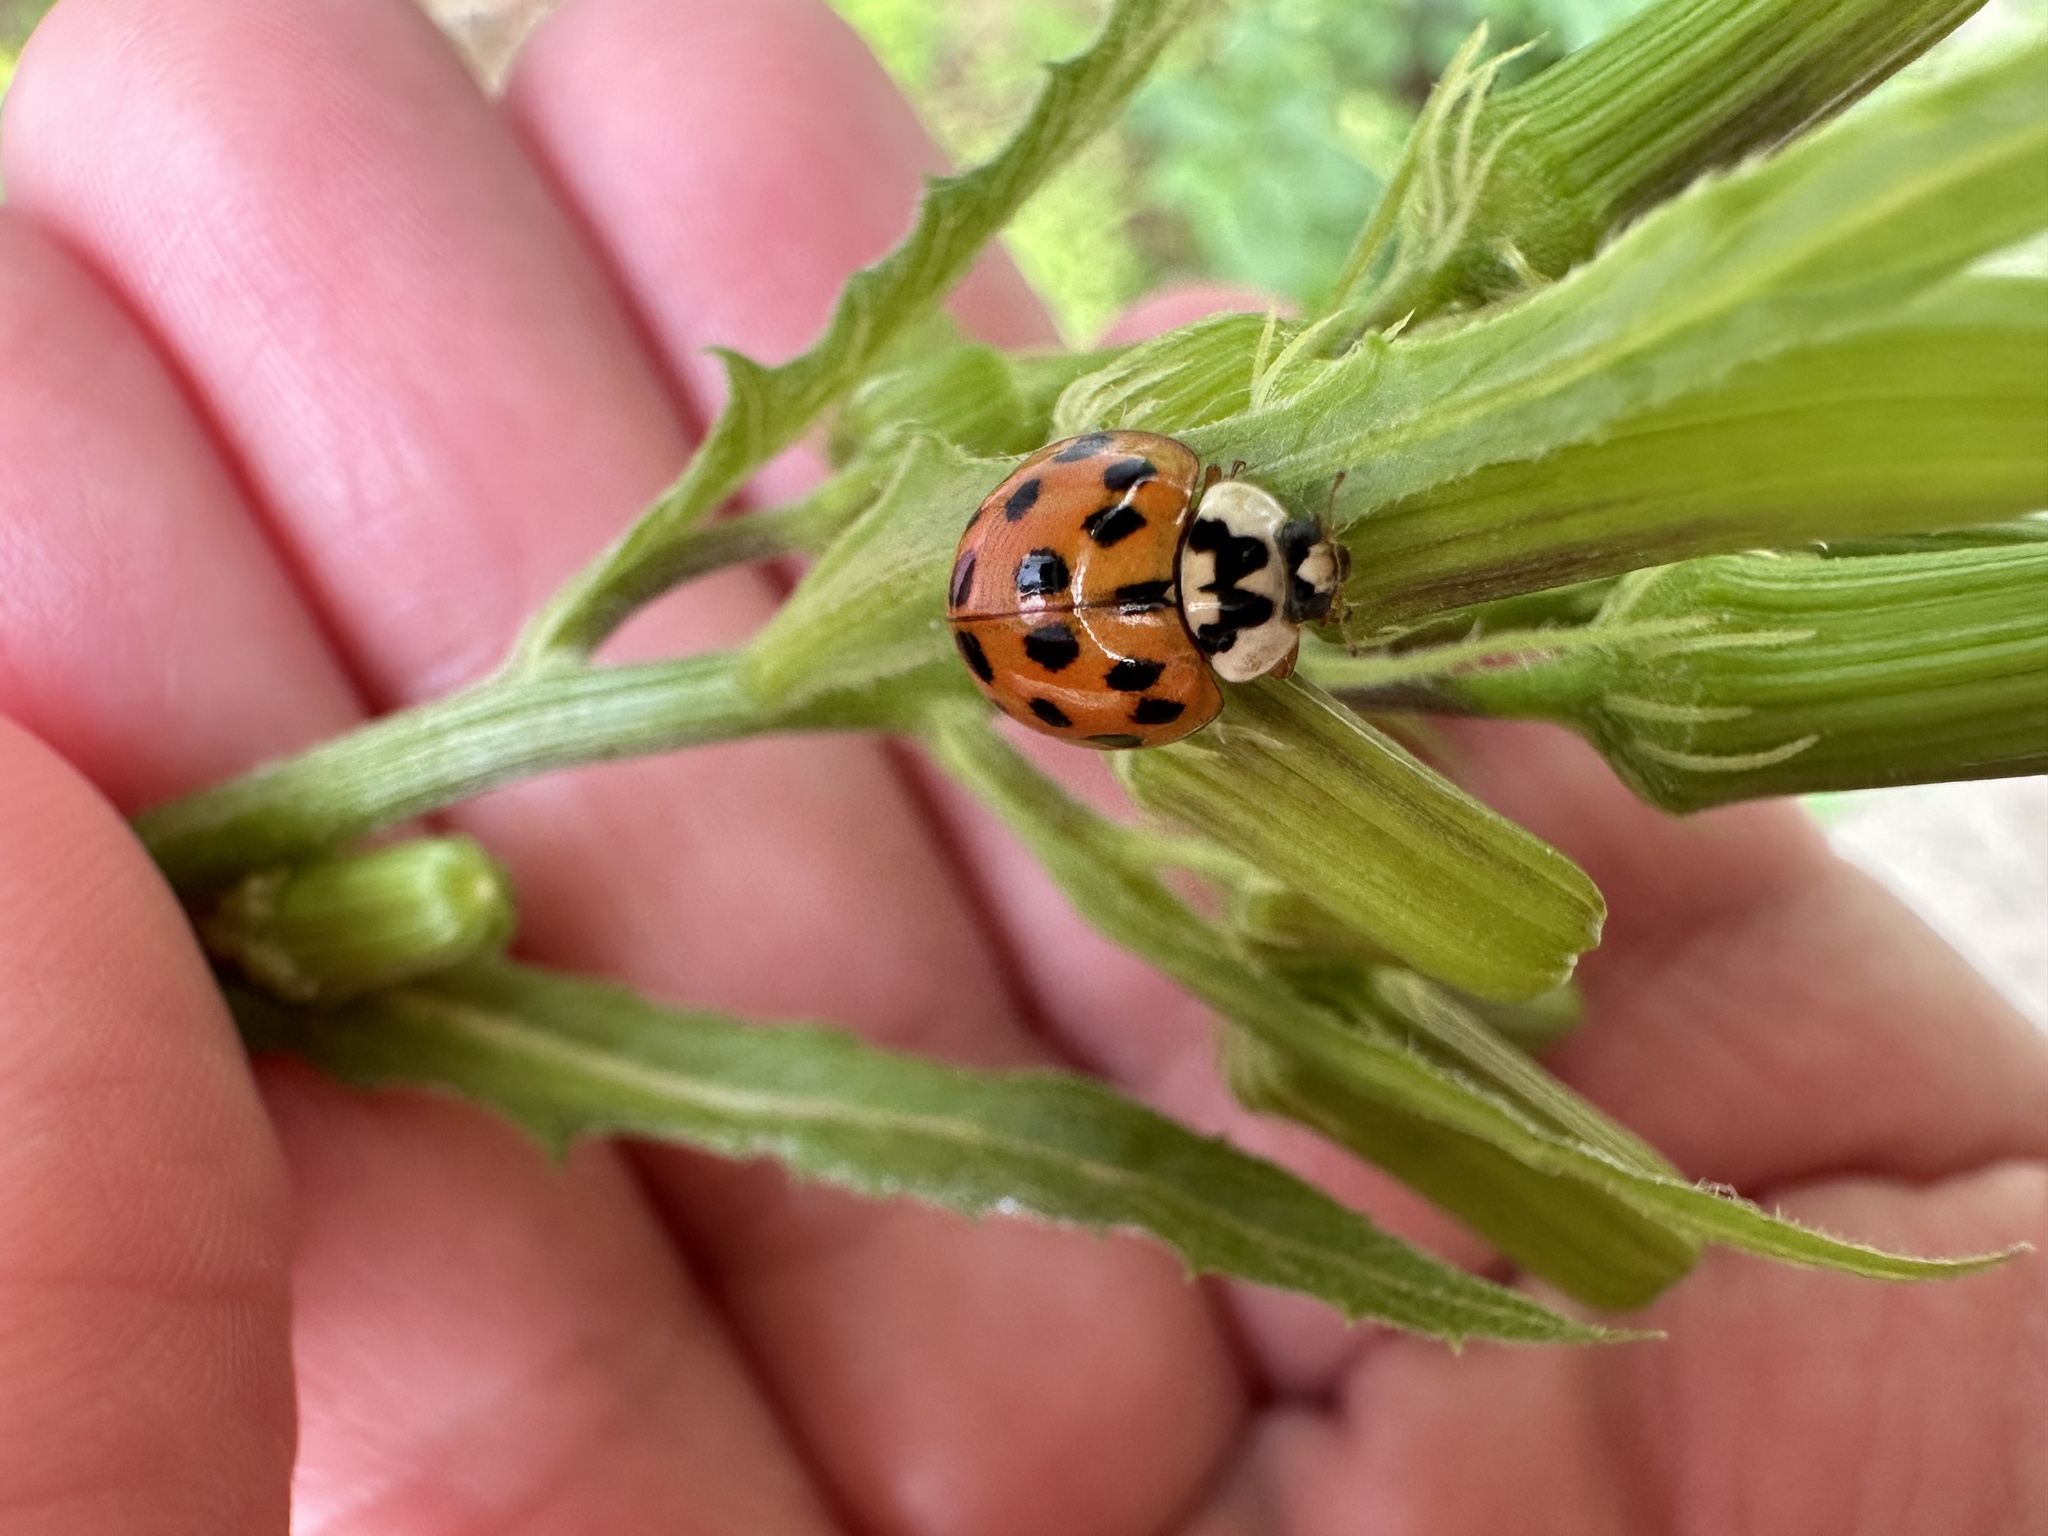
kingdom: Animalia
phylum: Arthropoda
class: Insecta
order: Coleoptera
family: Coccinellidae
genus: Harmonia
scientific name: Harmonia axyridis
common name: Harlequin ladybird
